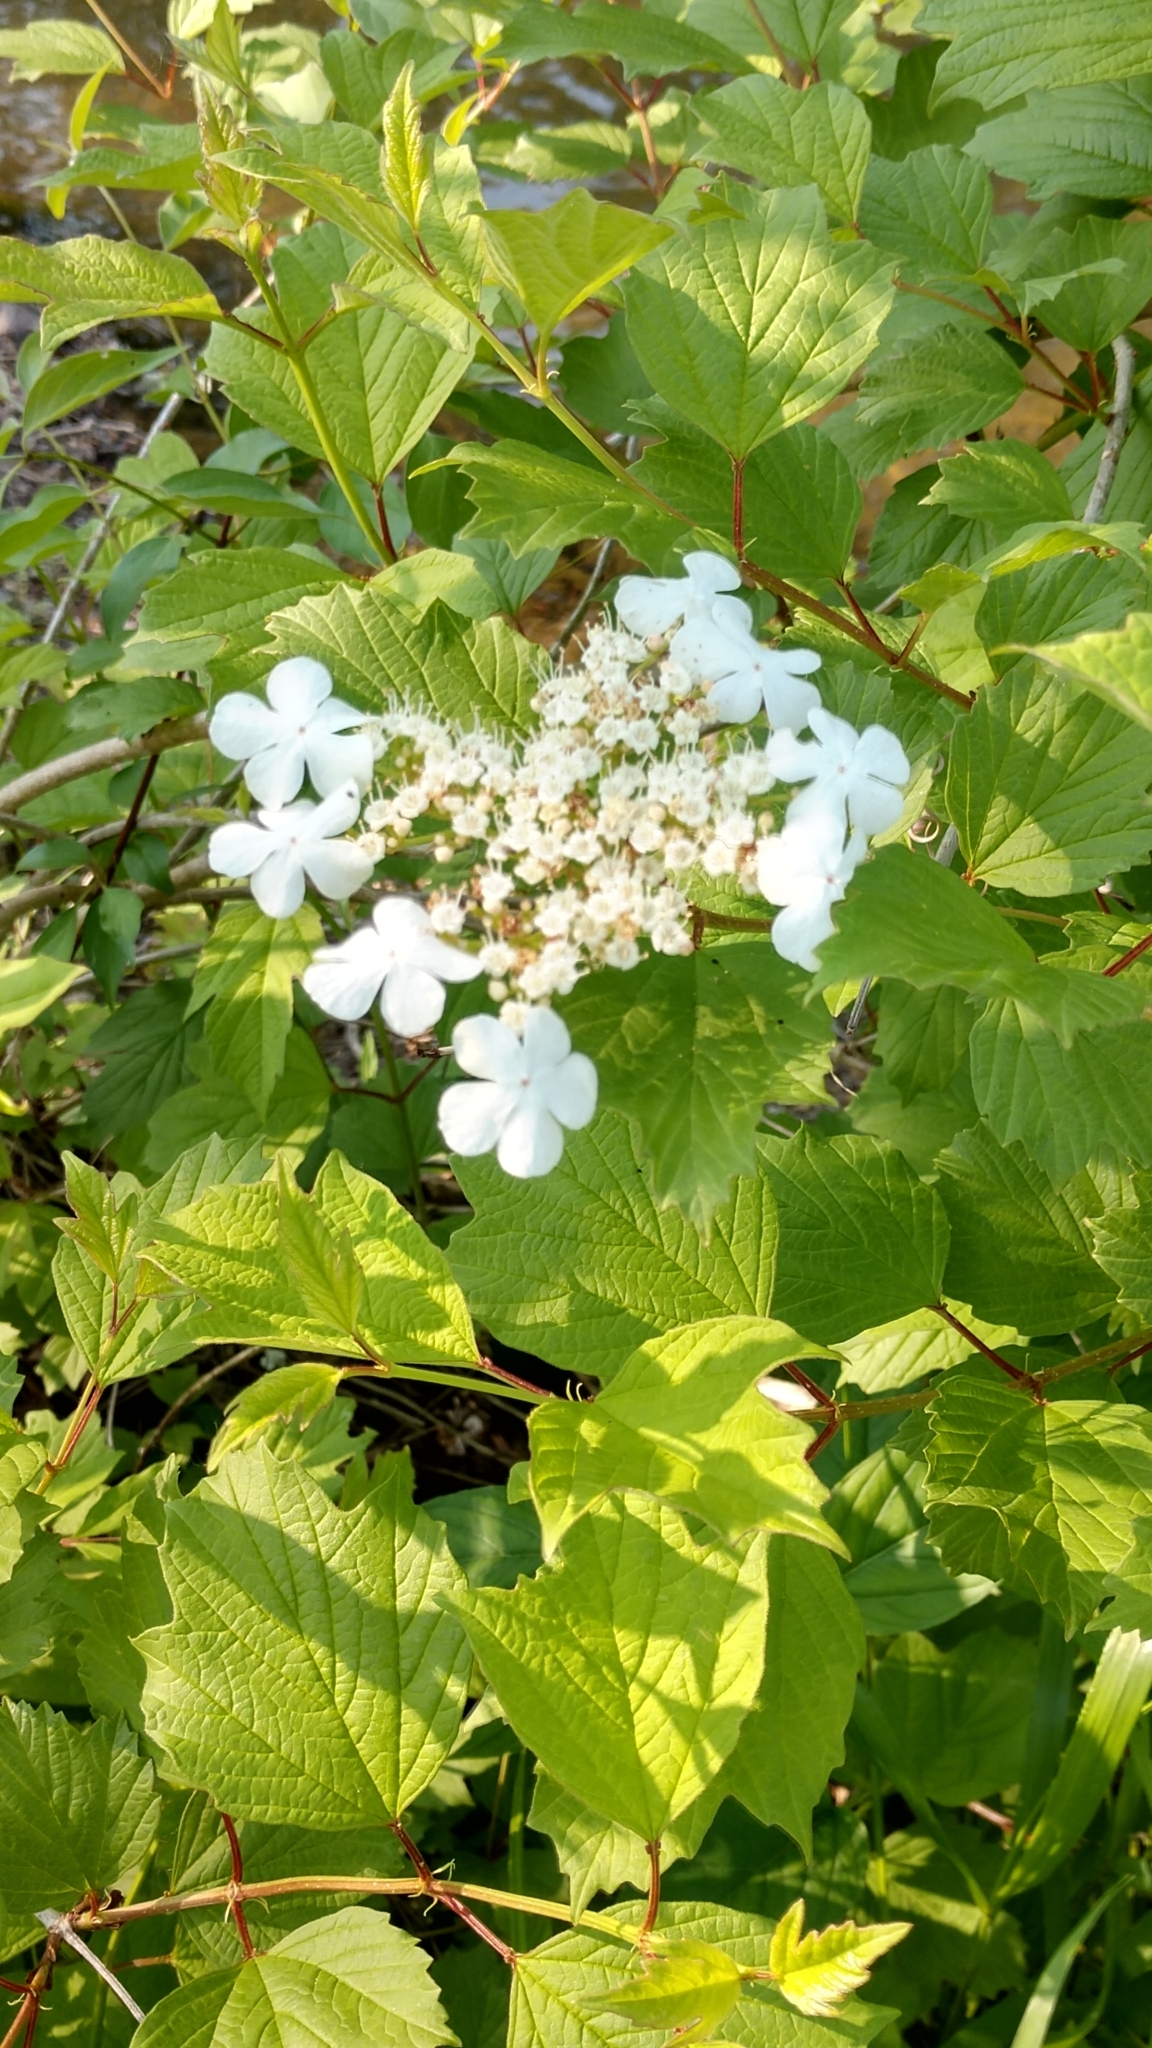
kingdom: Plantae
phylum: Tracheophyta
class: Magnoliopsida
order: Dipsacales
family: Viburnaceae
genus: Viburnum
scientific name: Viburnum opulus
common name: Guelder-rose
